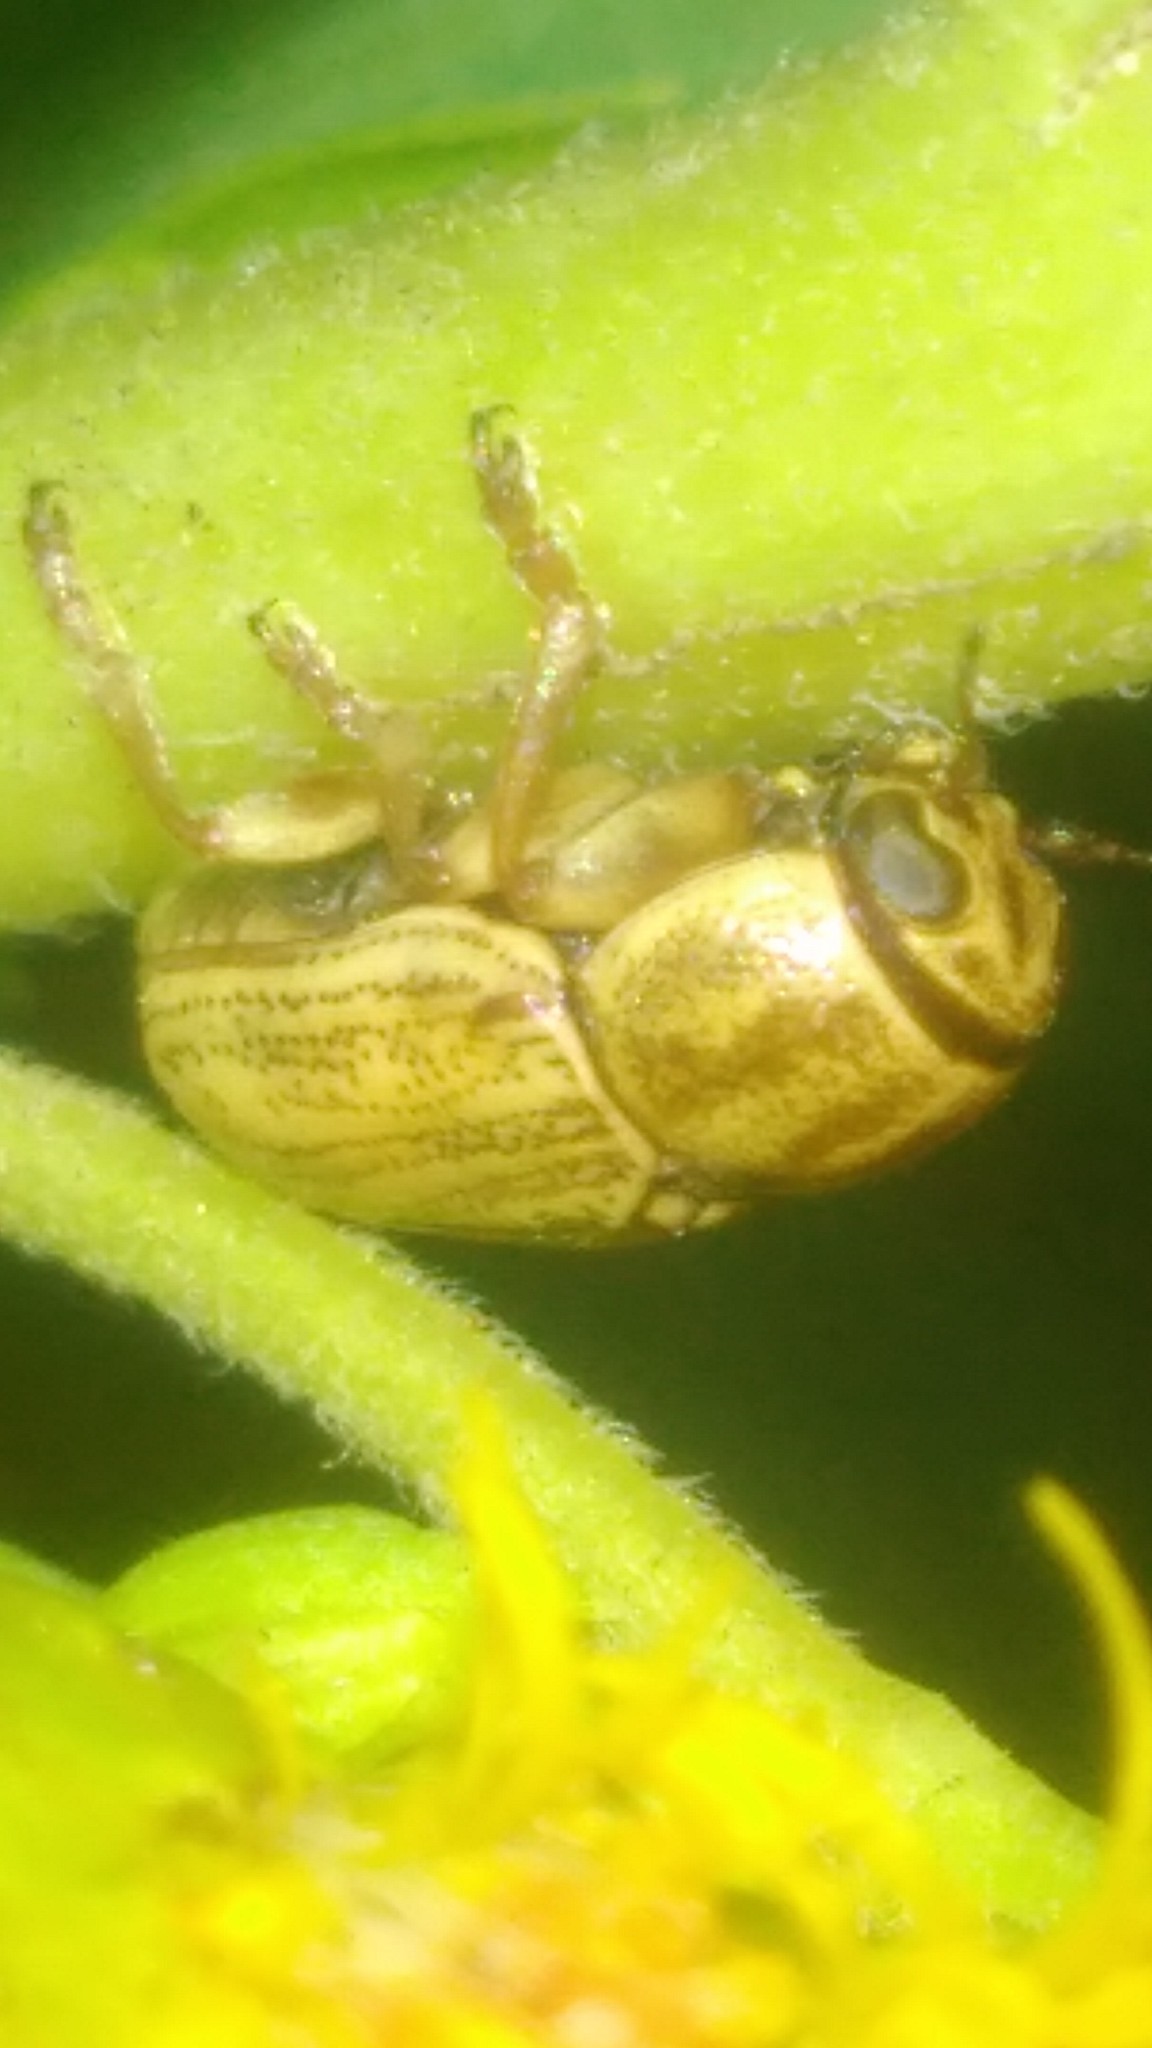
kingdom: Animalia
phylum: Arthropoda
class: Insecta
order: Coleoptera
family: Chrysomelidae
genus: Pachybrachis
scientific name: Pachybrachis
